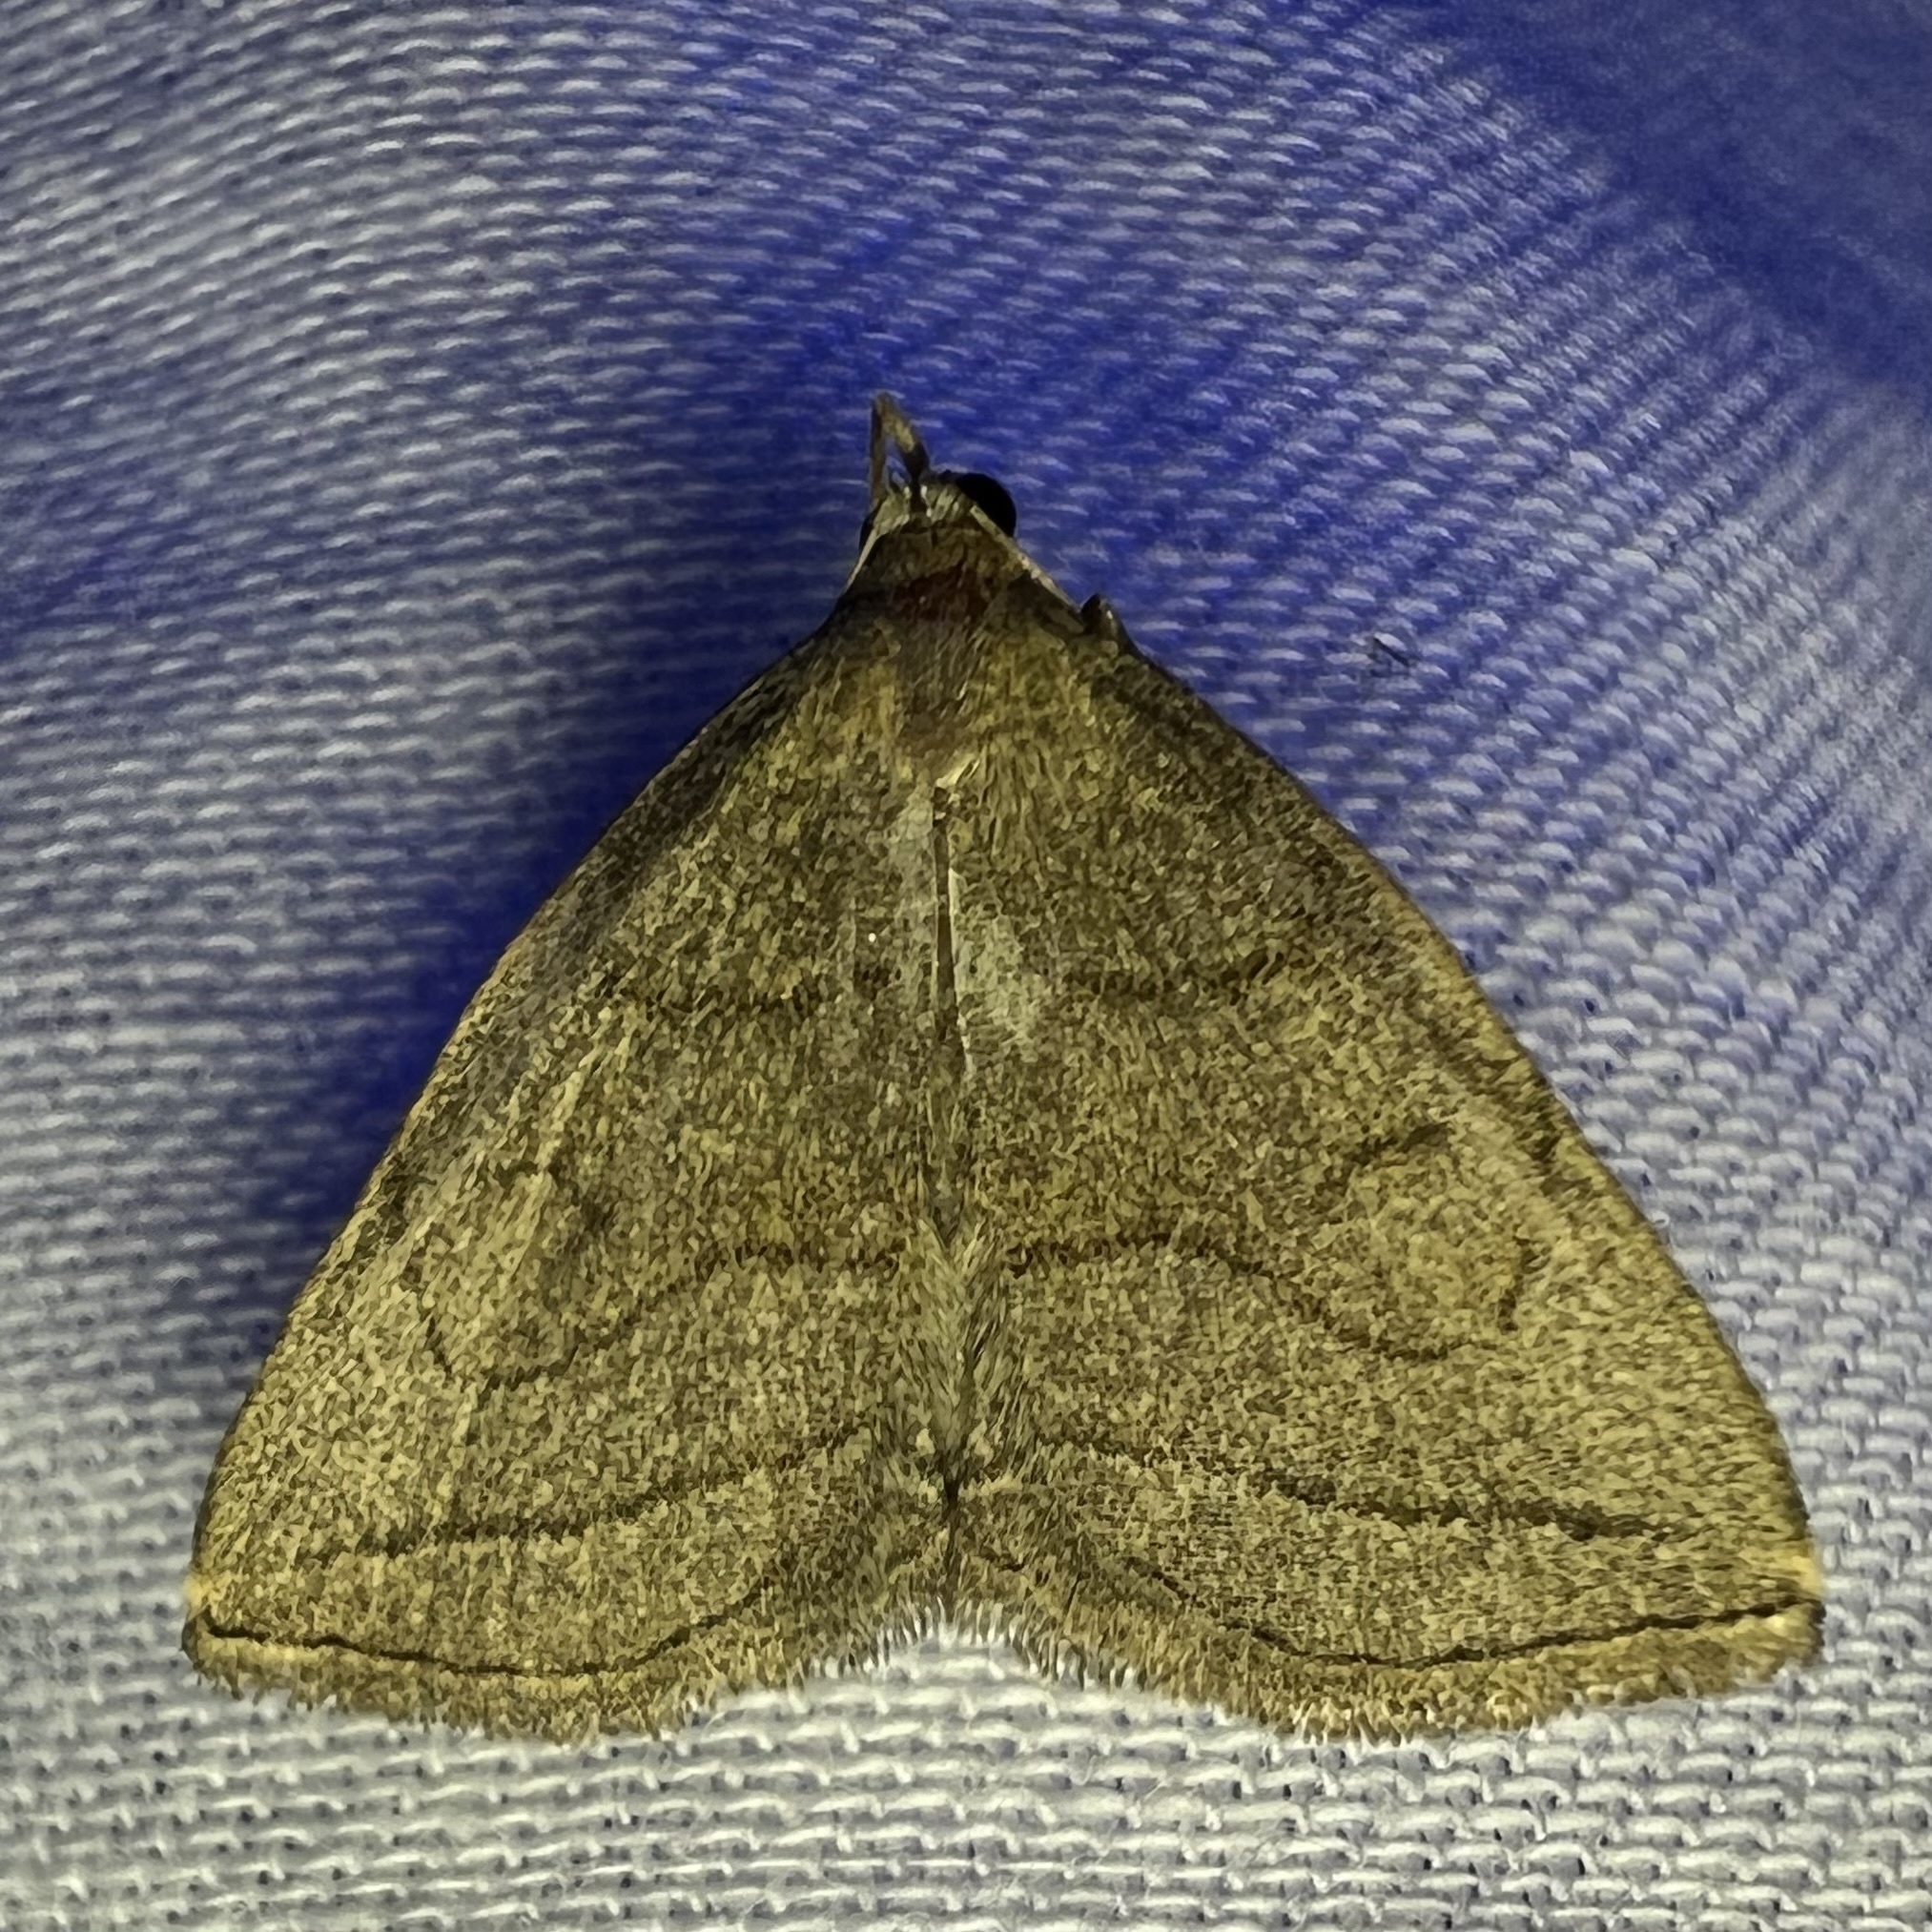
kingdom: Animalia
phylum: Arthropoda
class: Insecta
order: Lepidoptera
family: Erebidae
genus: Zanclognatha
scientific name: Zanclognatha pedipilalis
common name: Grayish fan-foot
